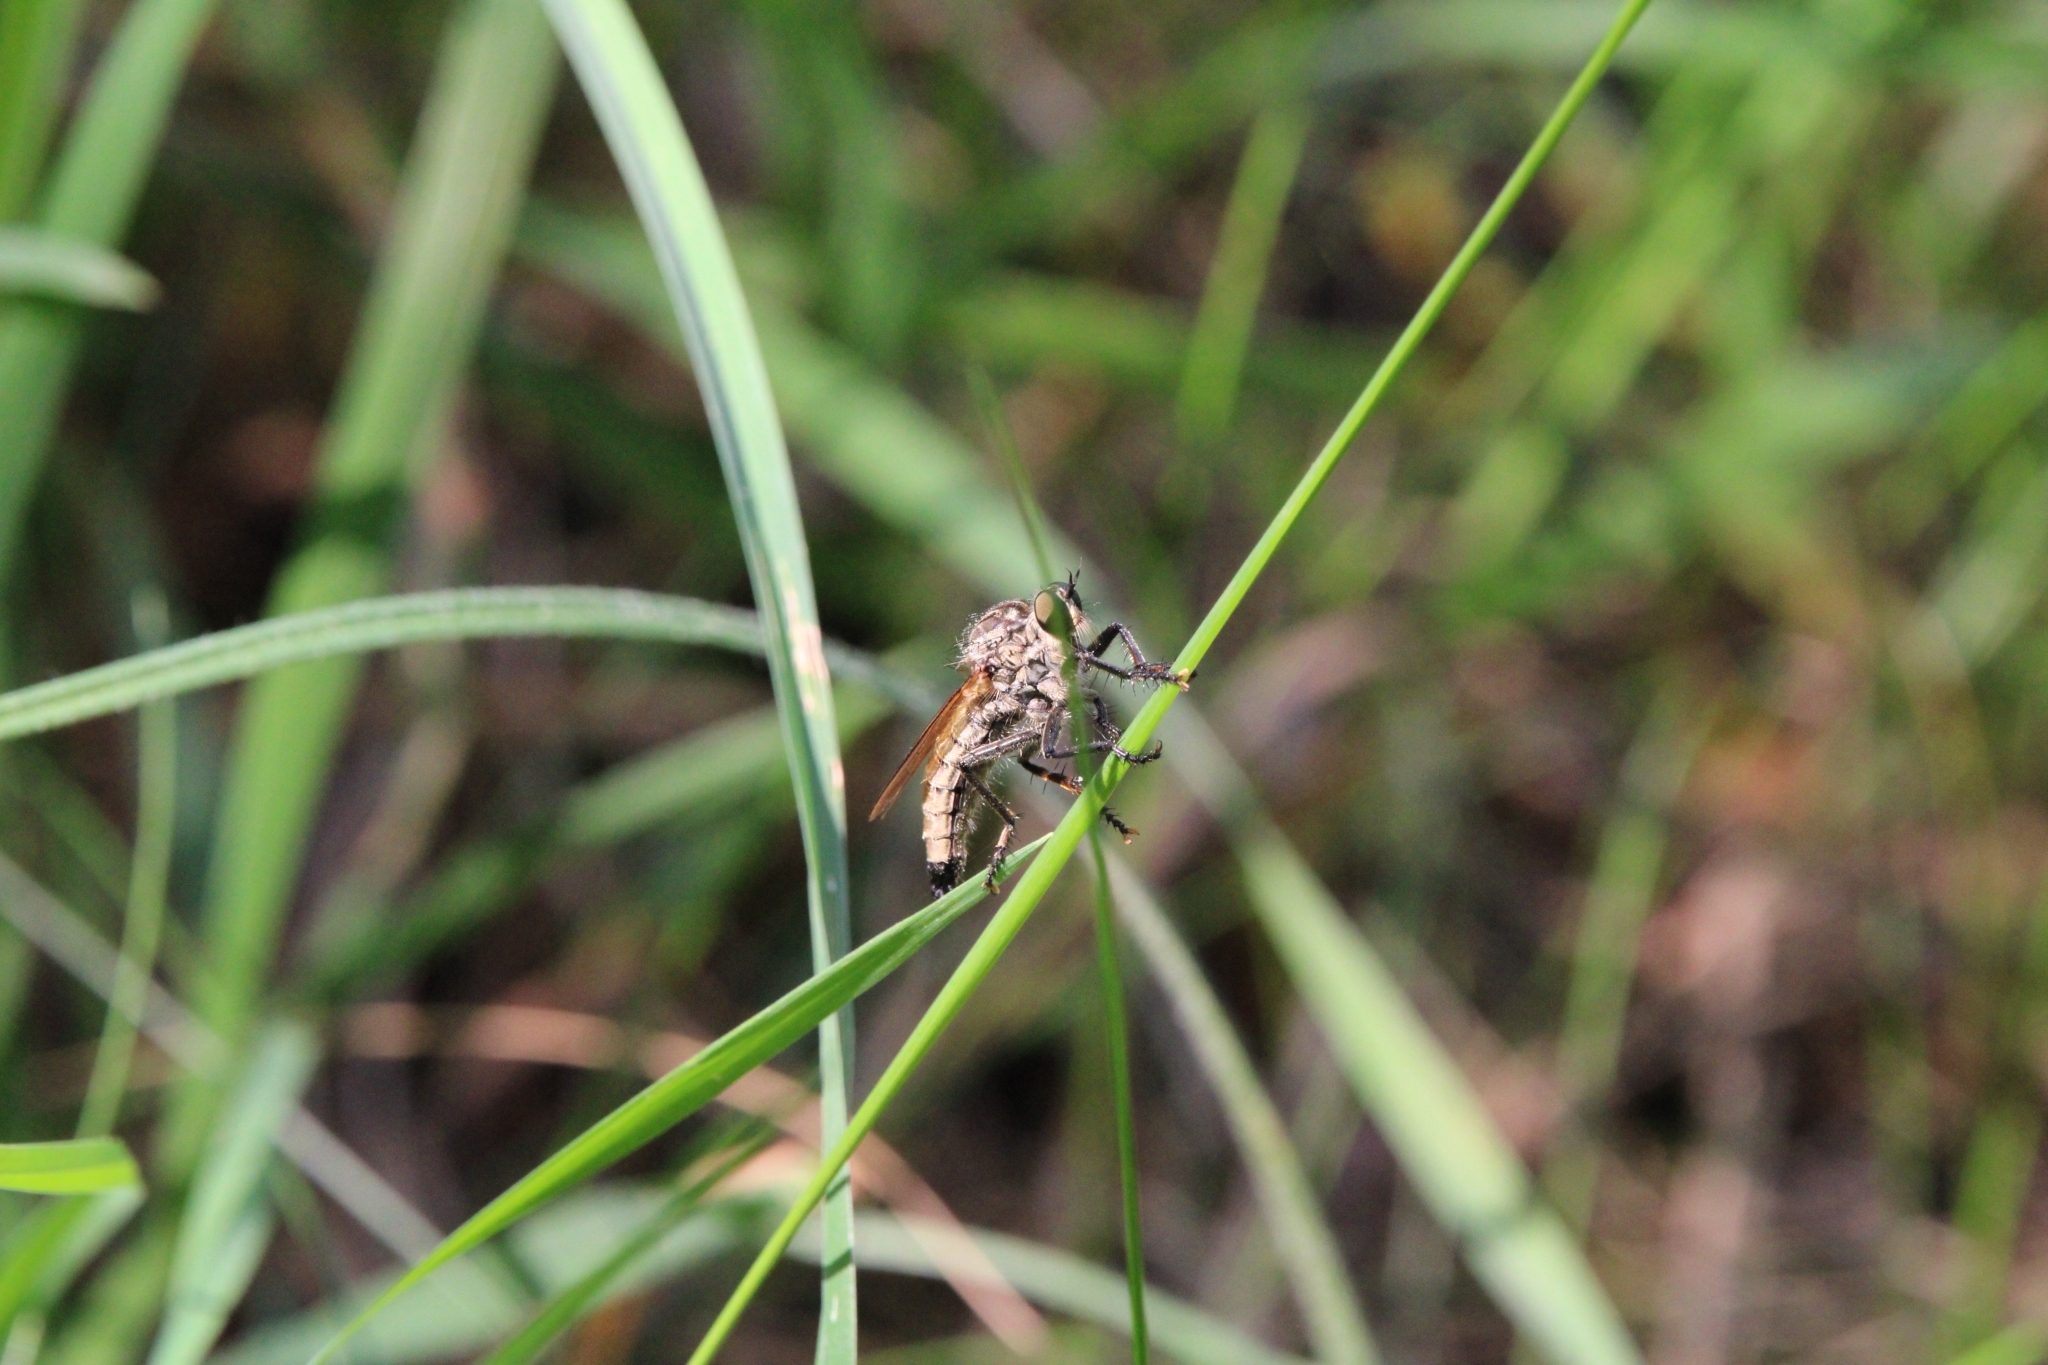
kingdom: Animalia
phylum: Arthropoda
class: Insecta
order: Diptera
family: Asilidae
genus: Eutolmus
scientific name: Eutolmus rufibarbis
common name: Golden-tabbed robberfly
